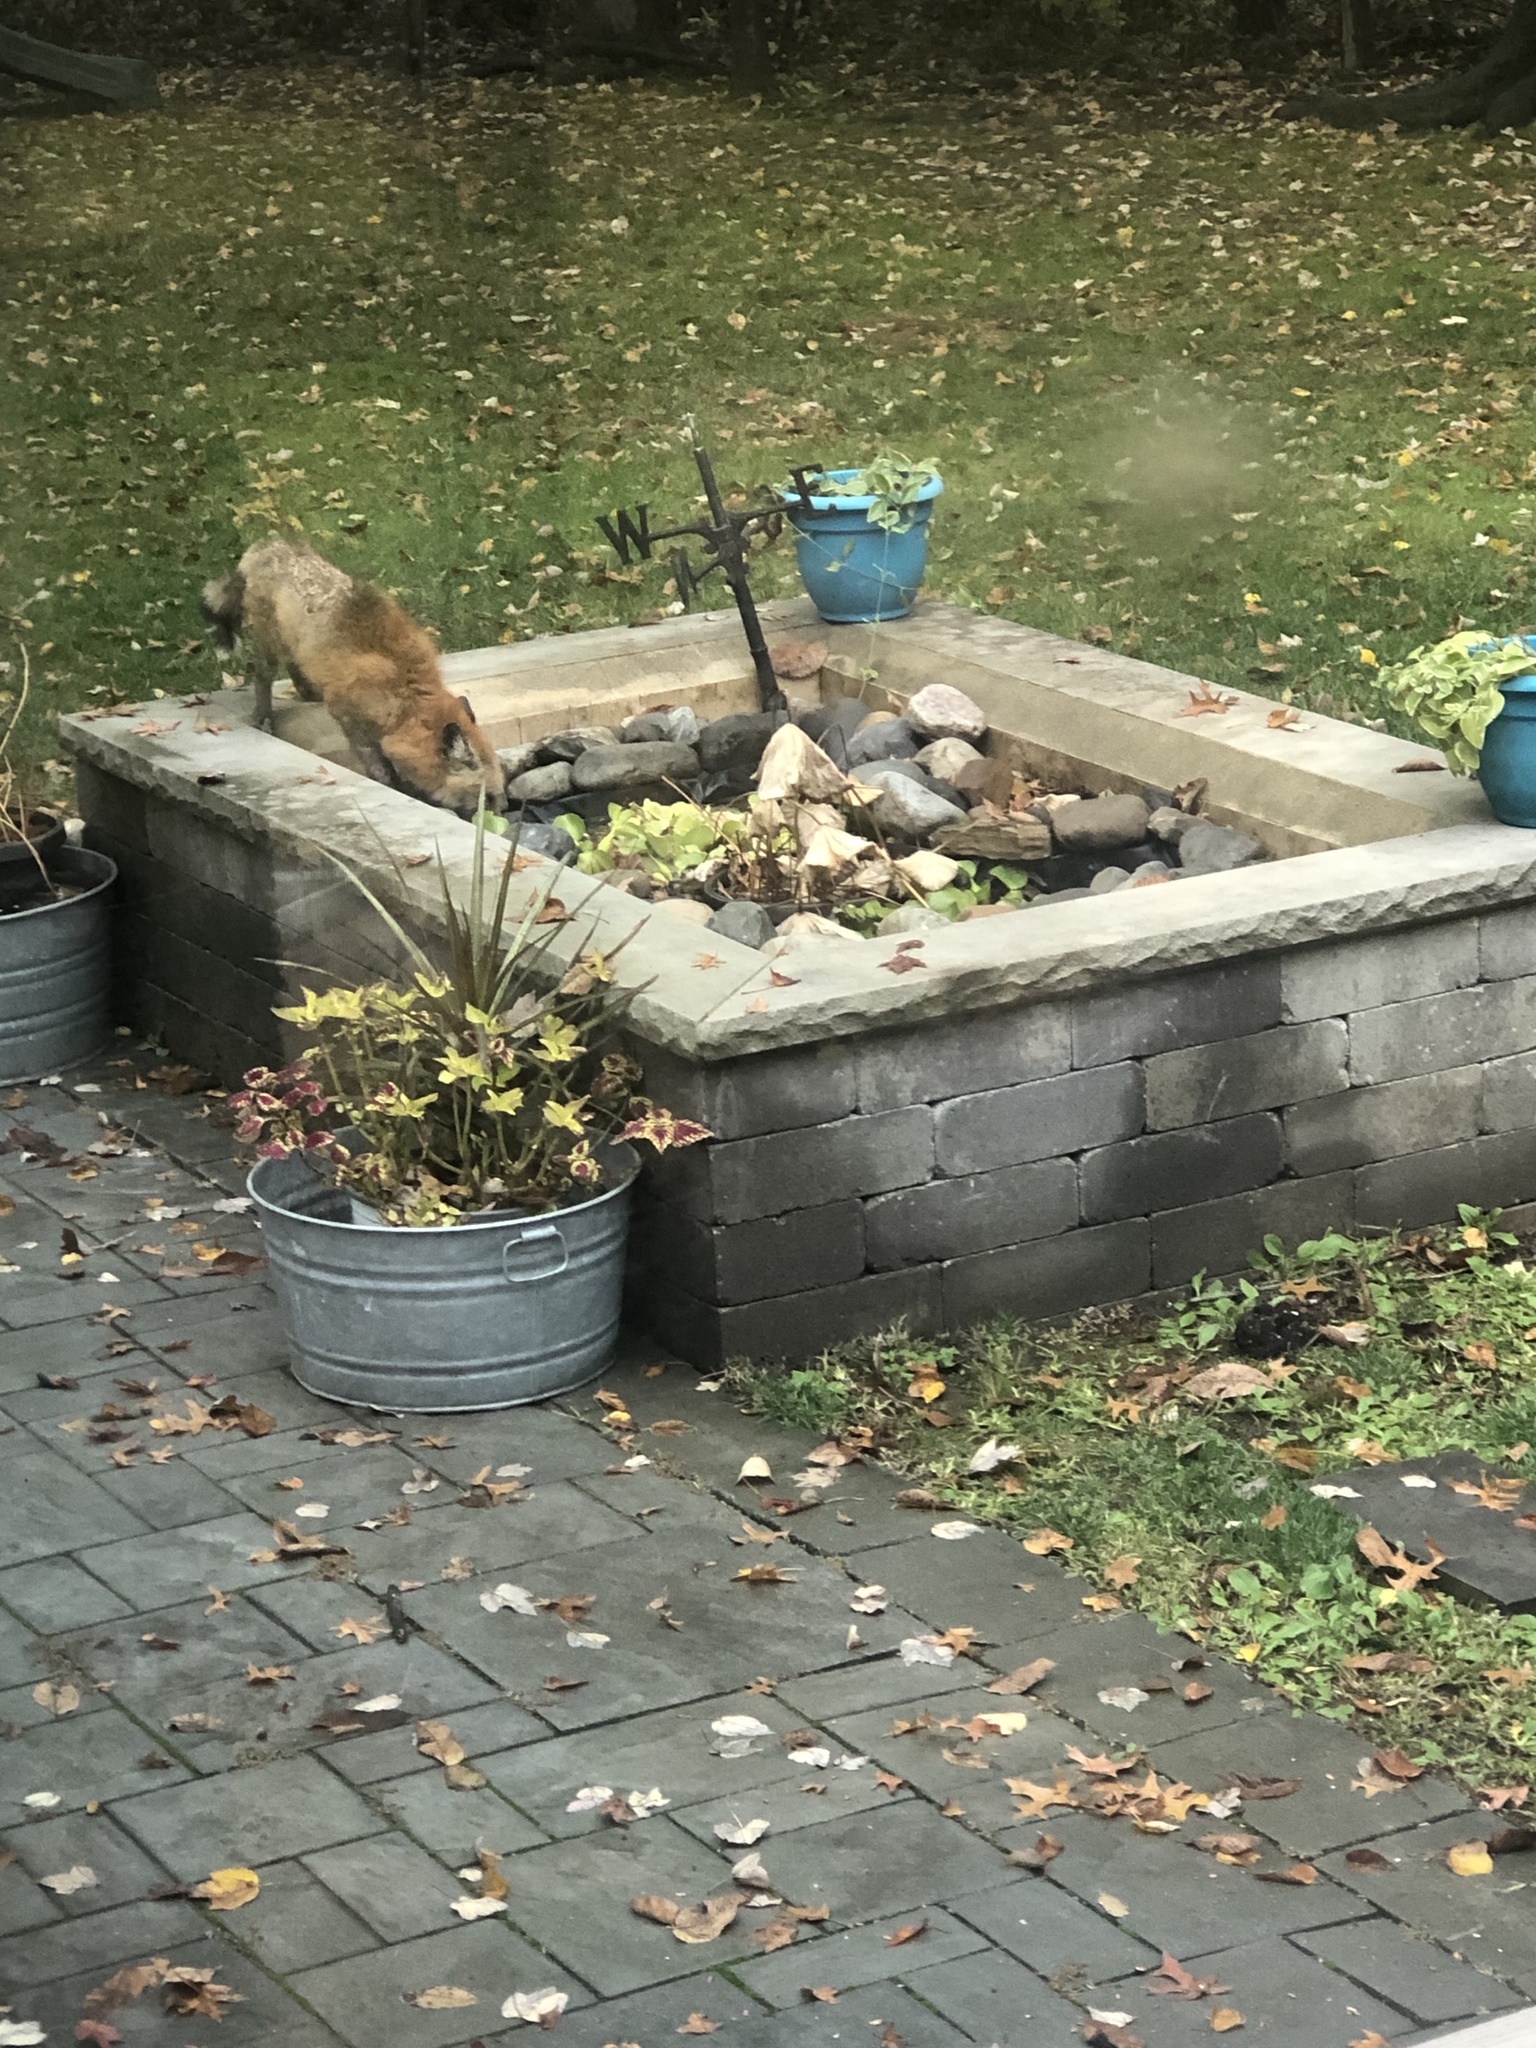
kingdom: Animalia
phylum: Chordata
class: Mammalia
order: Carnivora
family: Canidae
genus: Vulpes
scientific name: Vulpes vulpes
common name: Red fox
